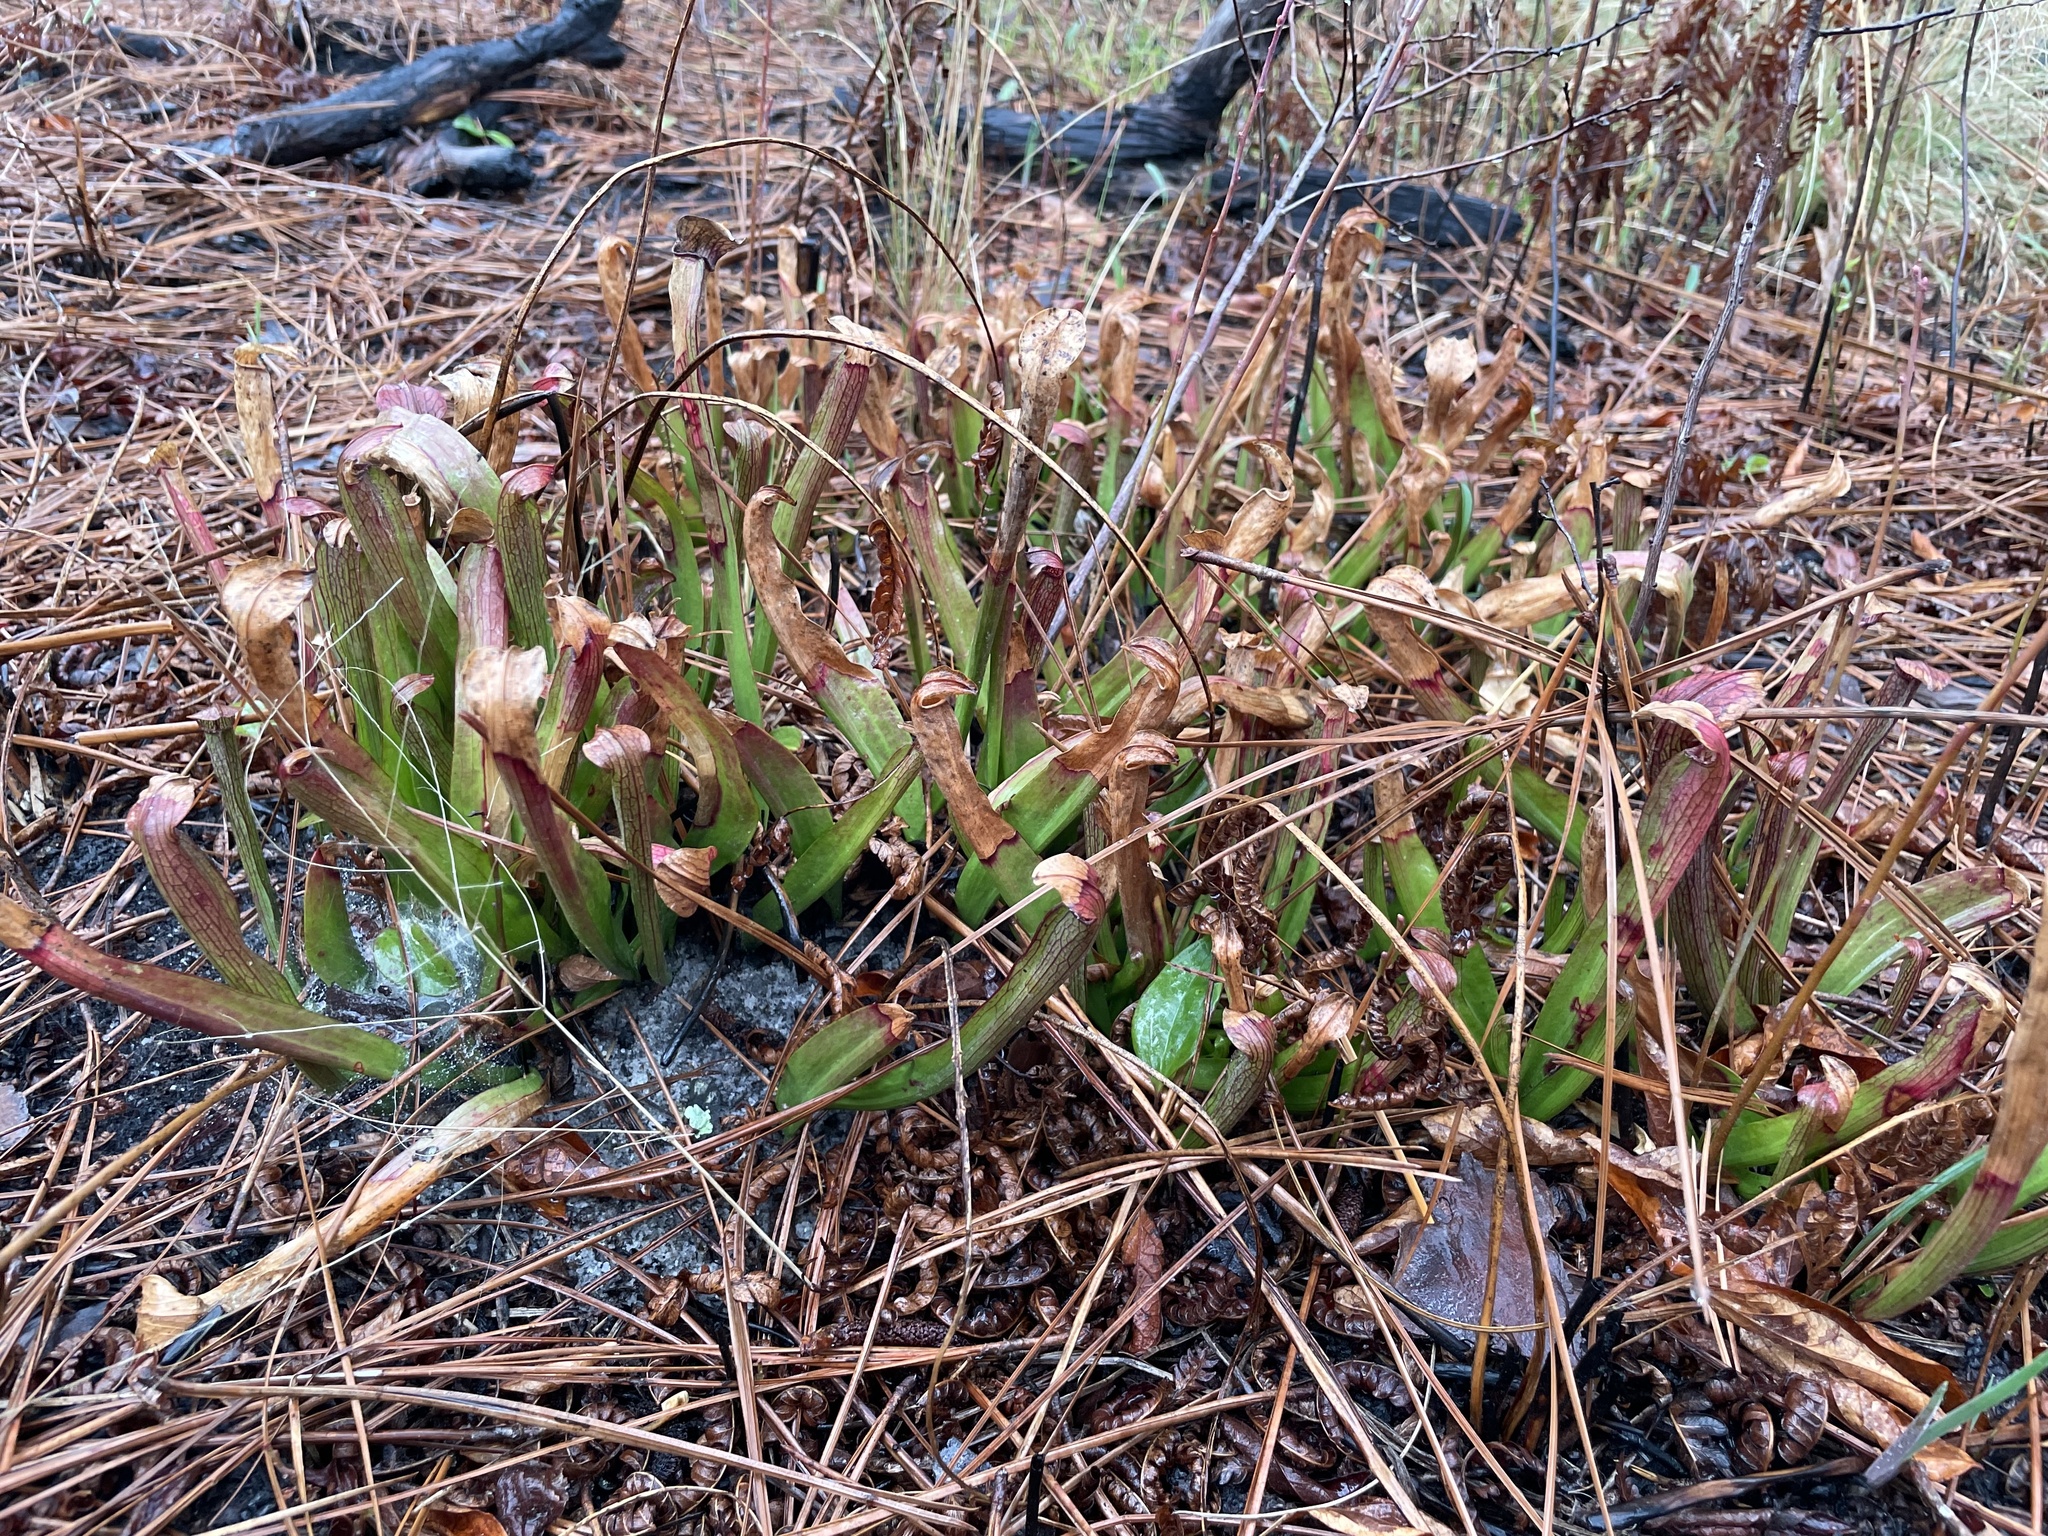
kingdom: Plantae
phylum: Tracheophyta
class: Magnoliopsida
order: Ericales
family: Sarraceniaceae
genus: Sarracenia
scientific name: Sarracenia rubra
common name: Sweet pitcherplant
